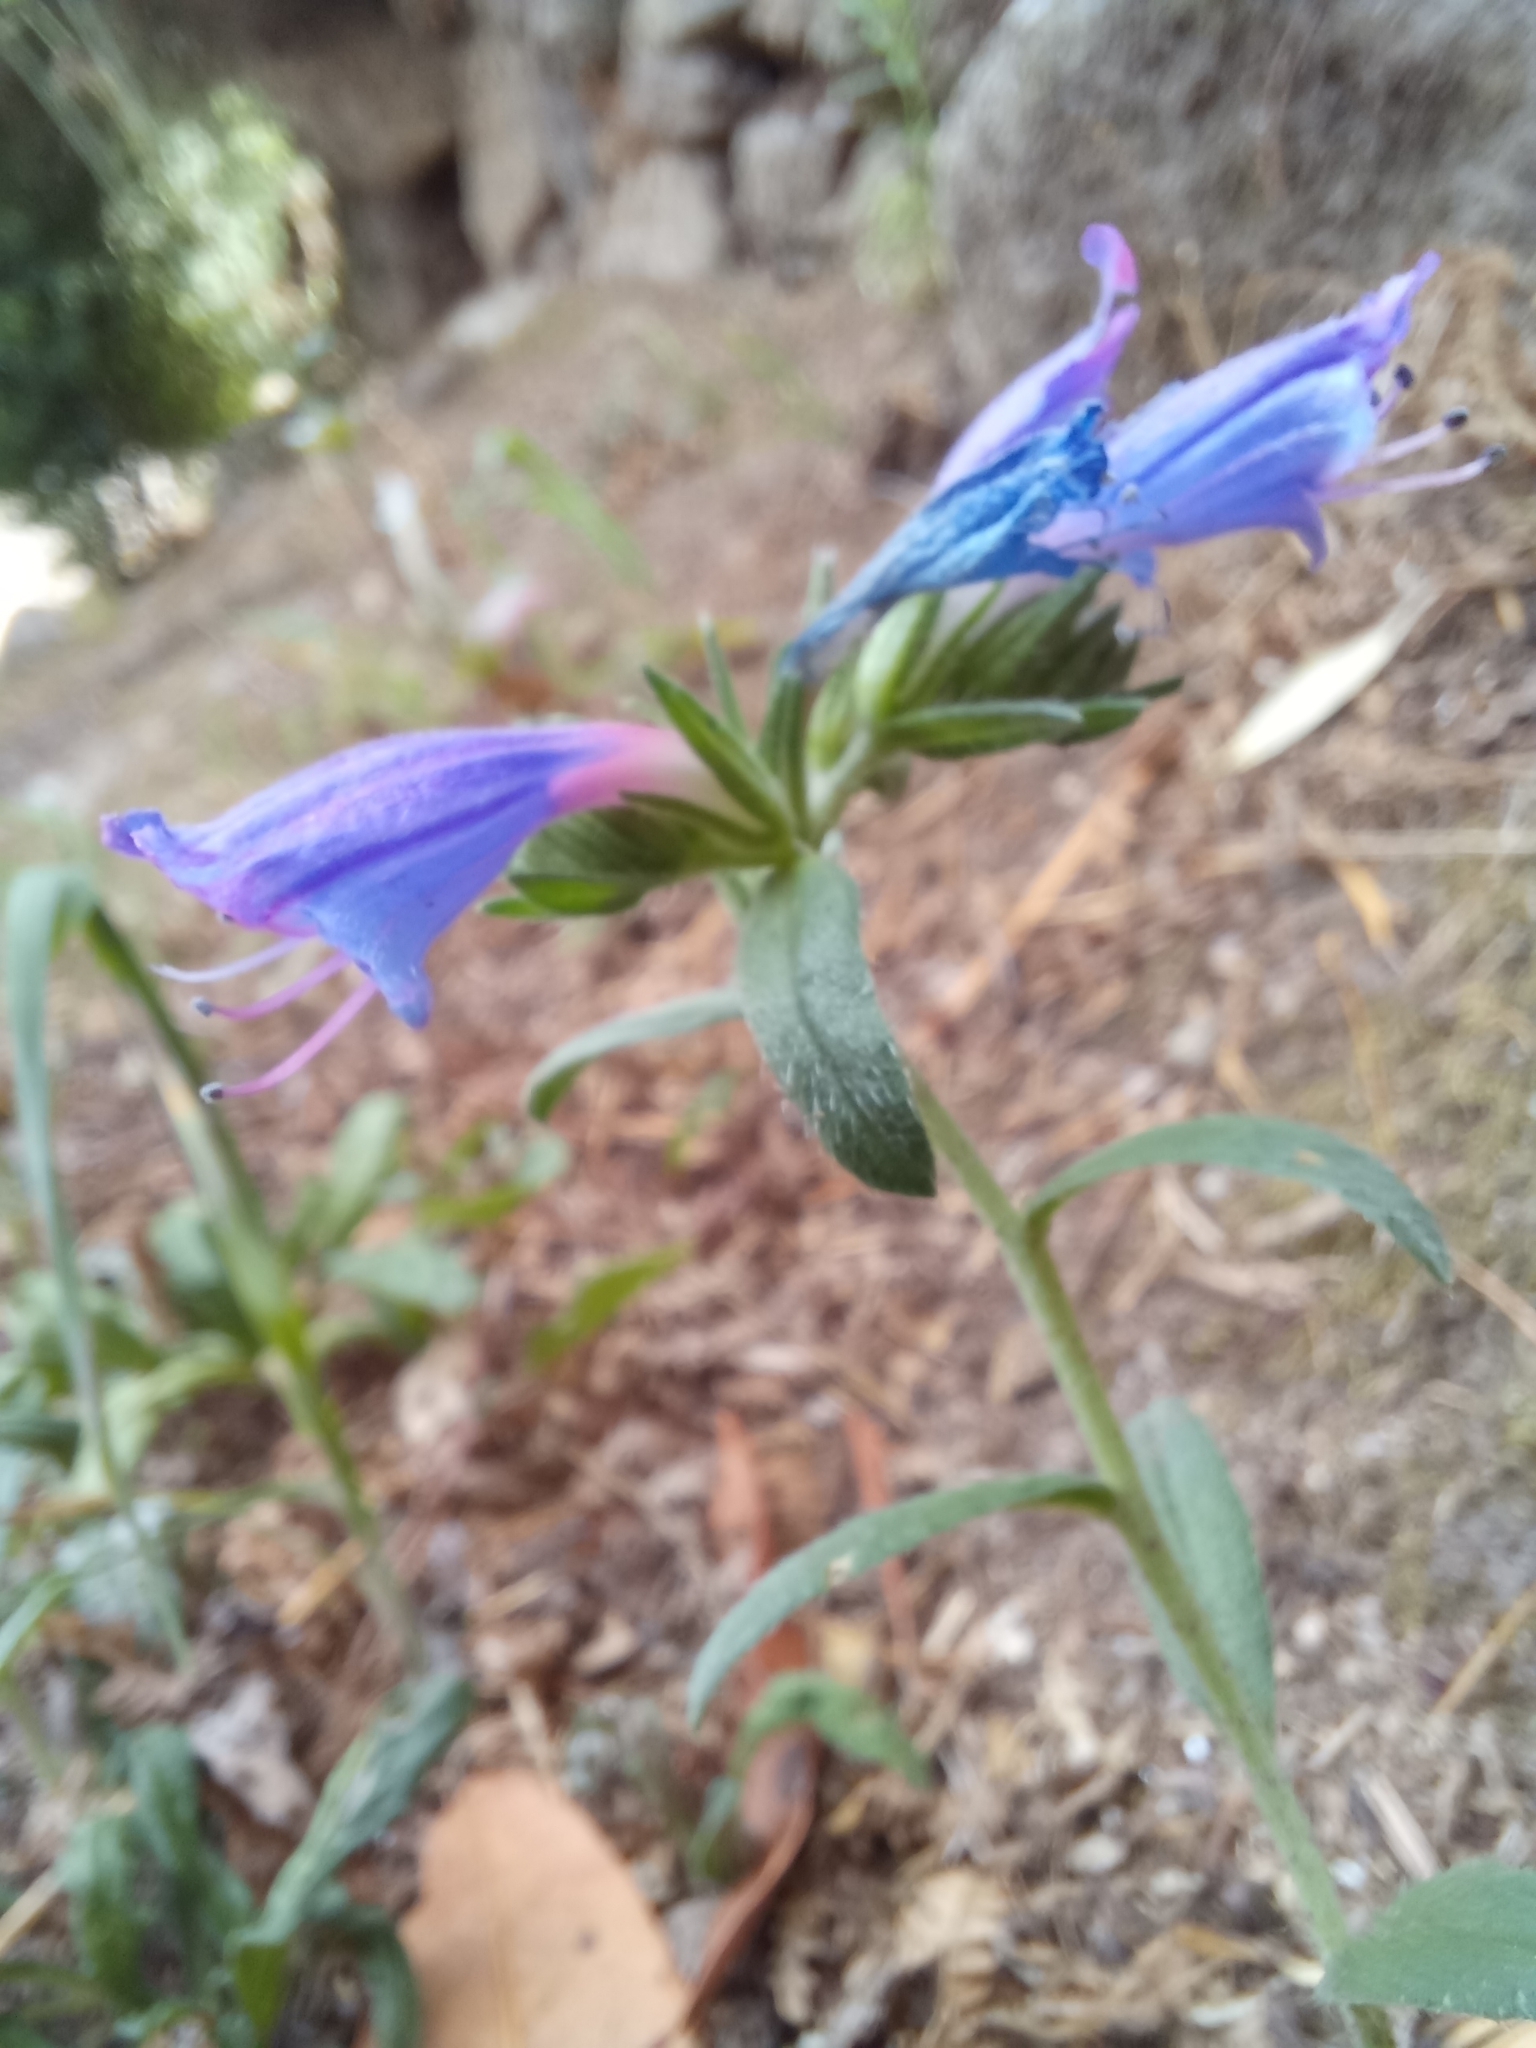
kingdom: Plantae
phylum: Tracheophyta
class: Magnoliopsida
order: Boraginales
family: Boraginaceae
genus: Echium
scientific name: Echium rosulatum
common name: Lax viper's-bugloss
